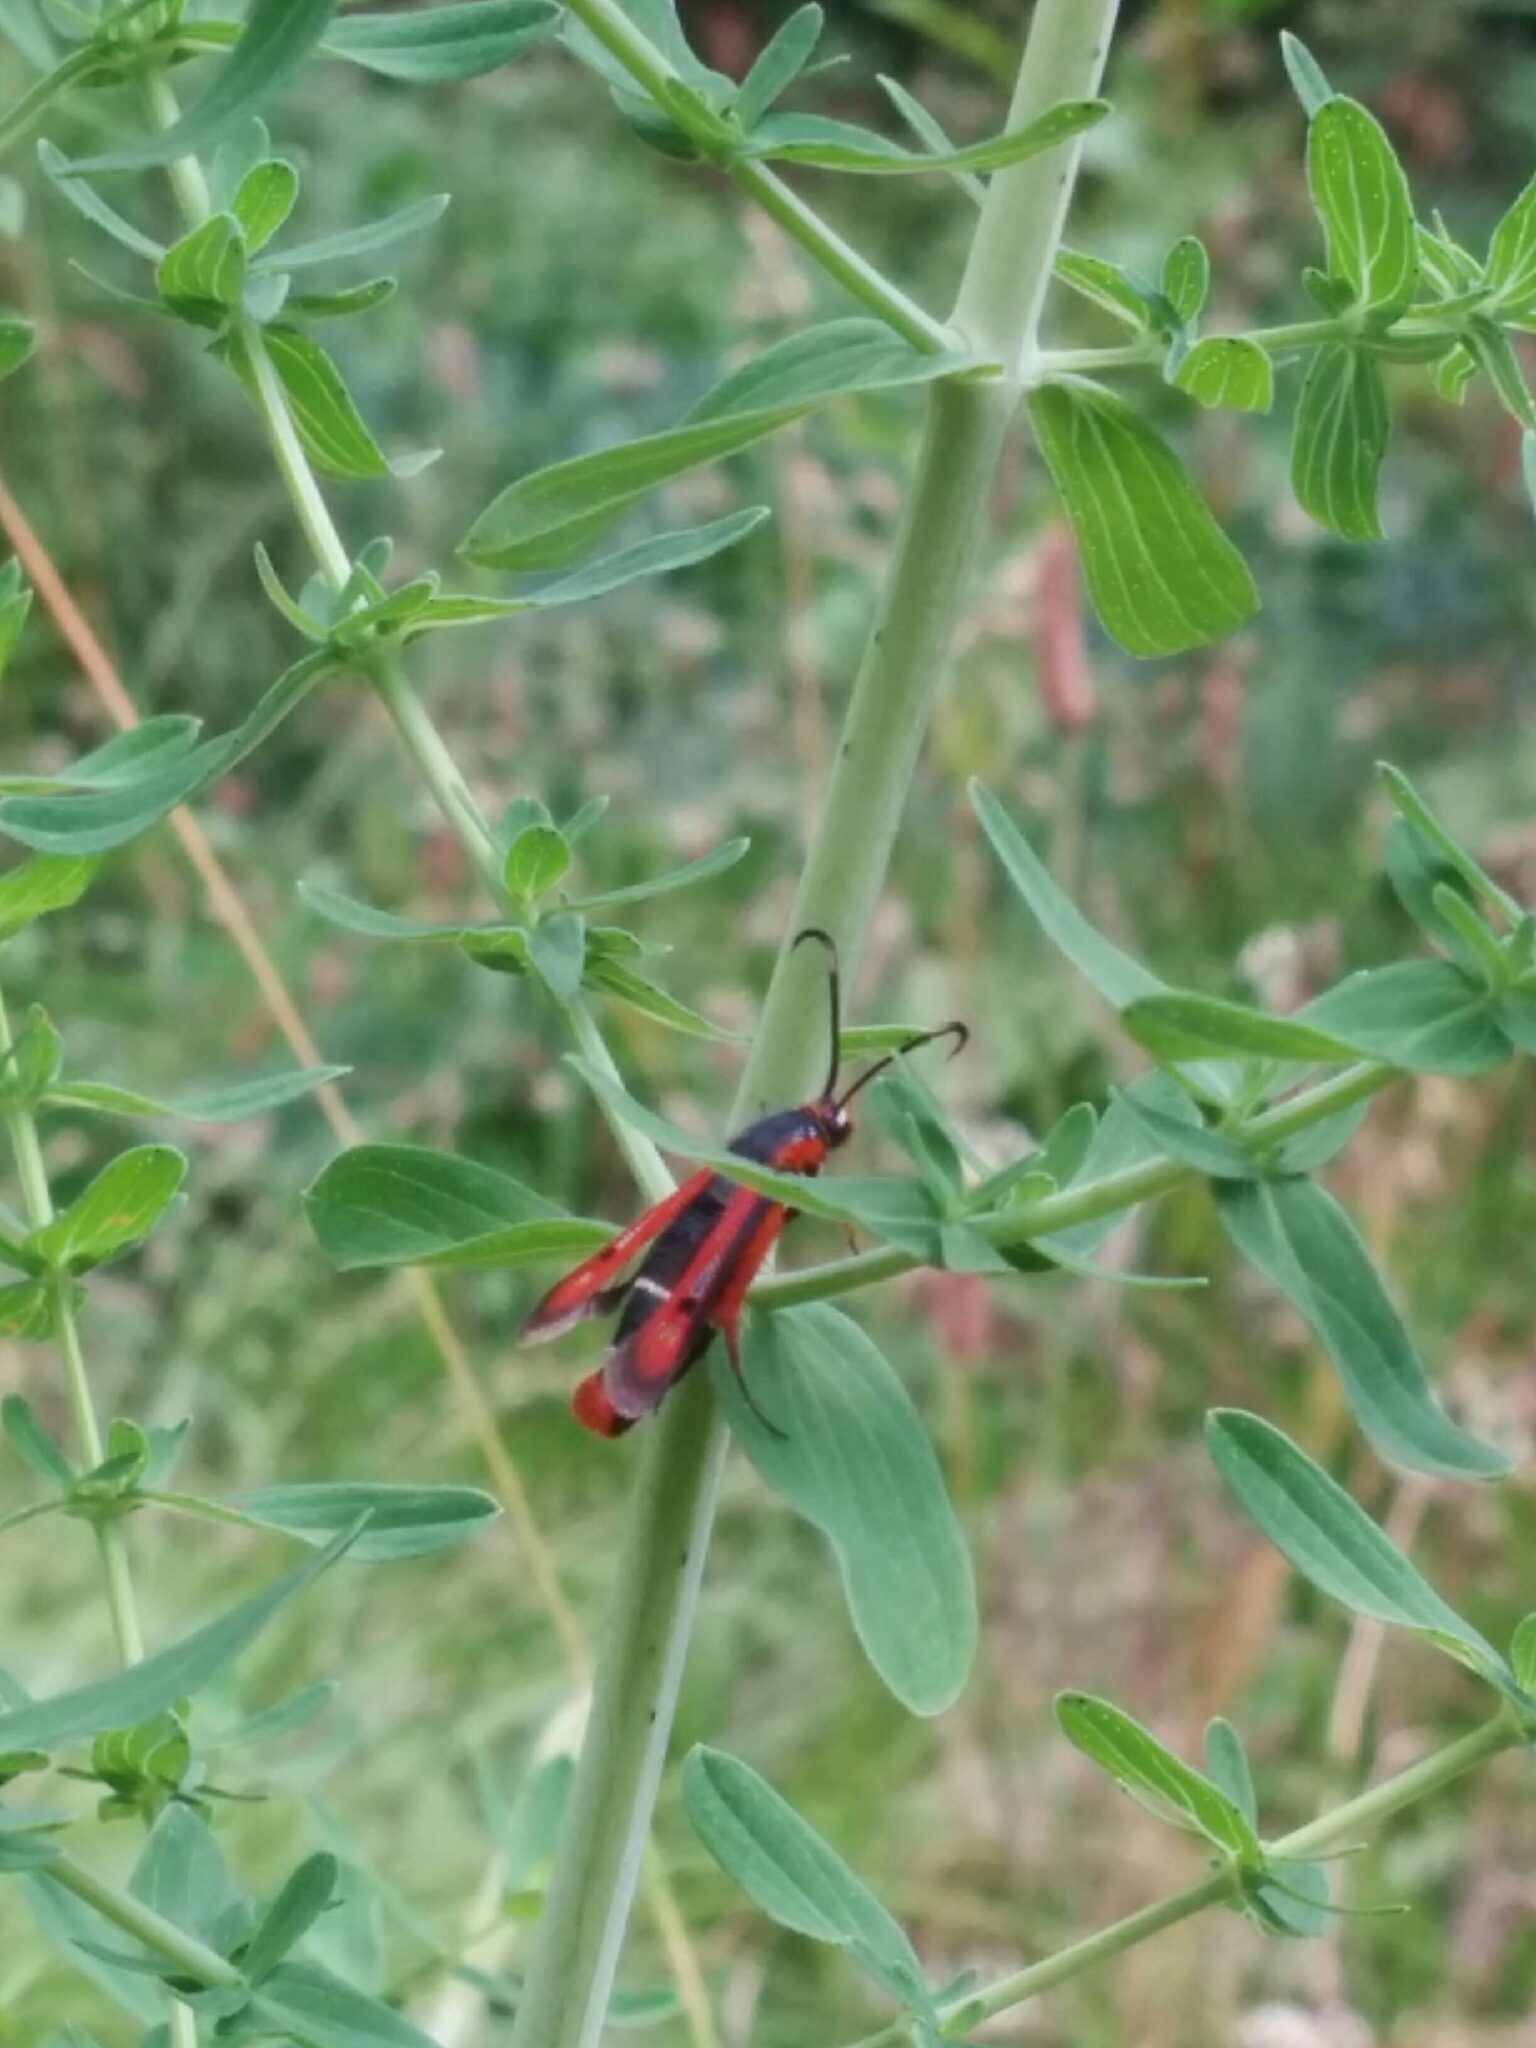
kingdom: Animalia
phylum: Arthropoda
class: Insecta
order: Lepidoptera
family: Sesiidae
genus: Pyropteron
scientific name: Pyropteron chrysidiforme
